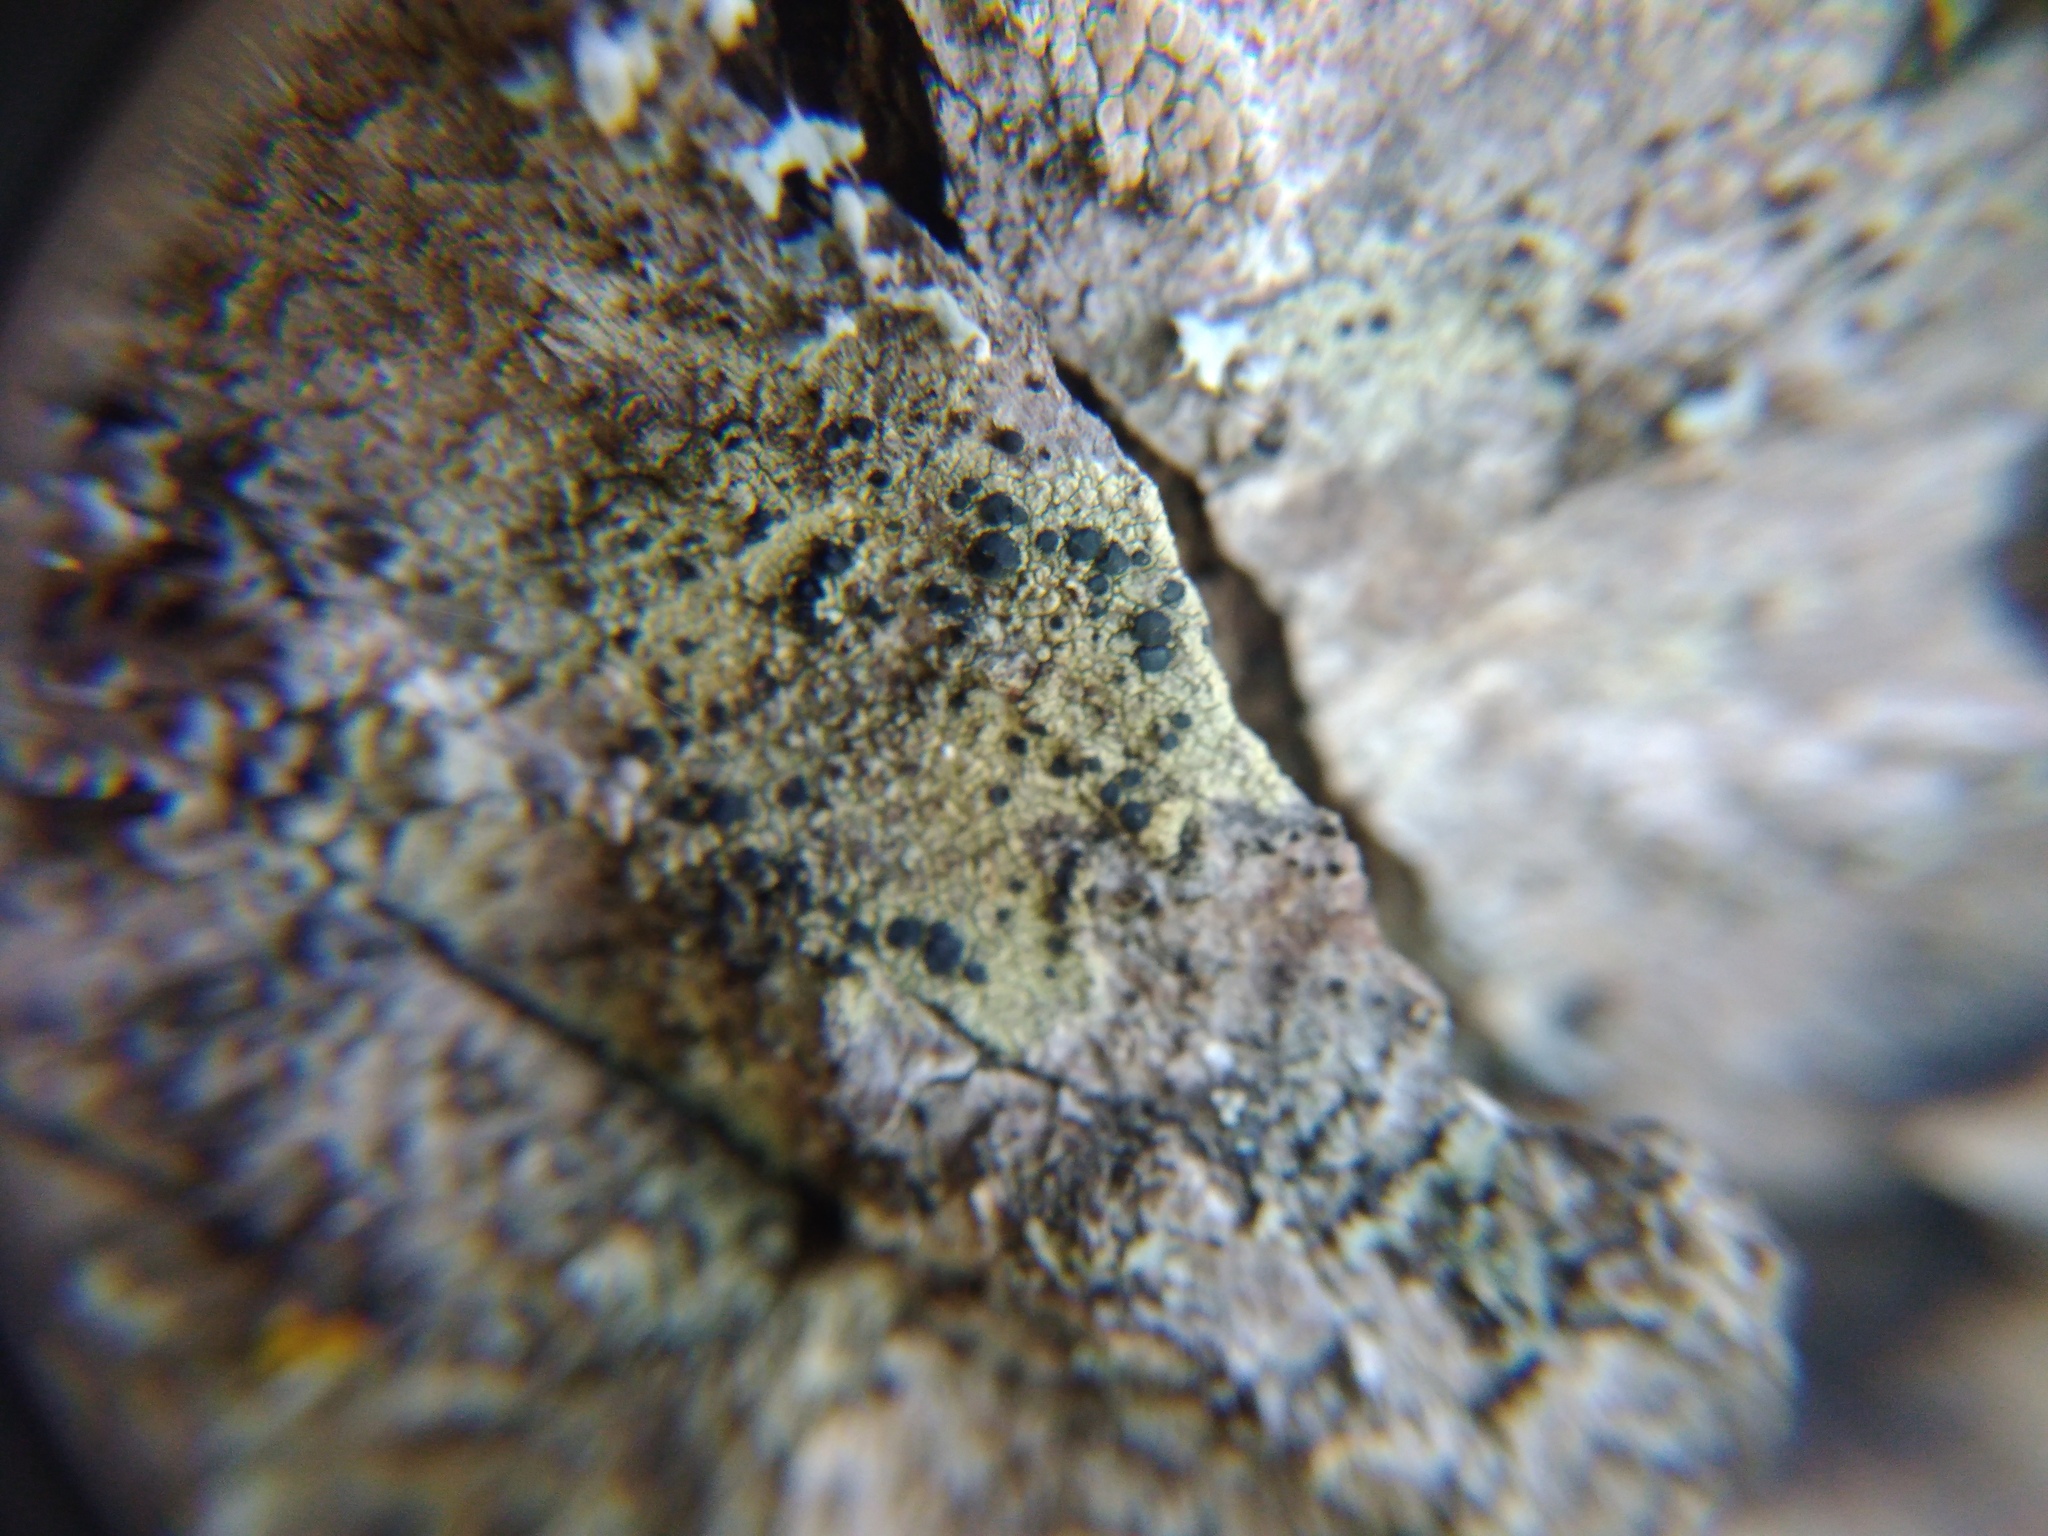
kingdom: Fungi
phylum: Ascomycota
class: Lecanoromycetes
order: Lecanorales
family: Lecanoraceae
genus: Lecidella
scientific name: Lecidella elaeochroma
